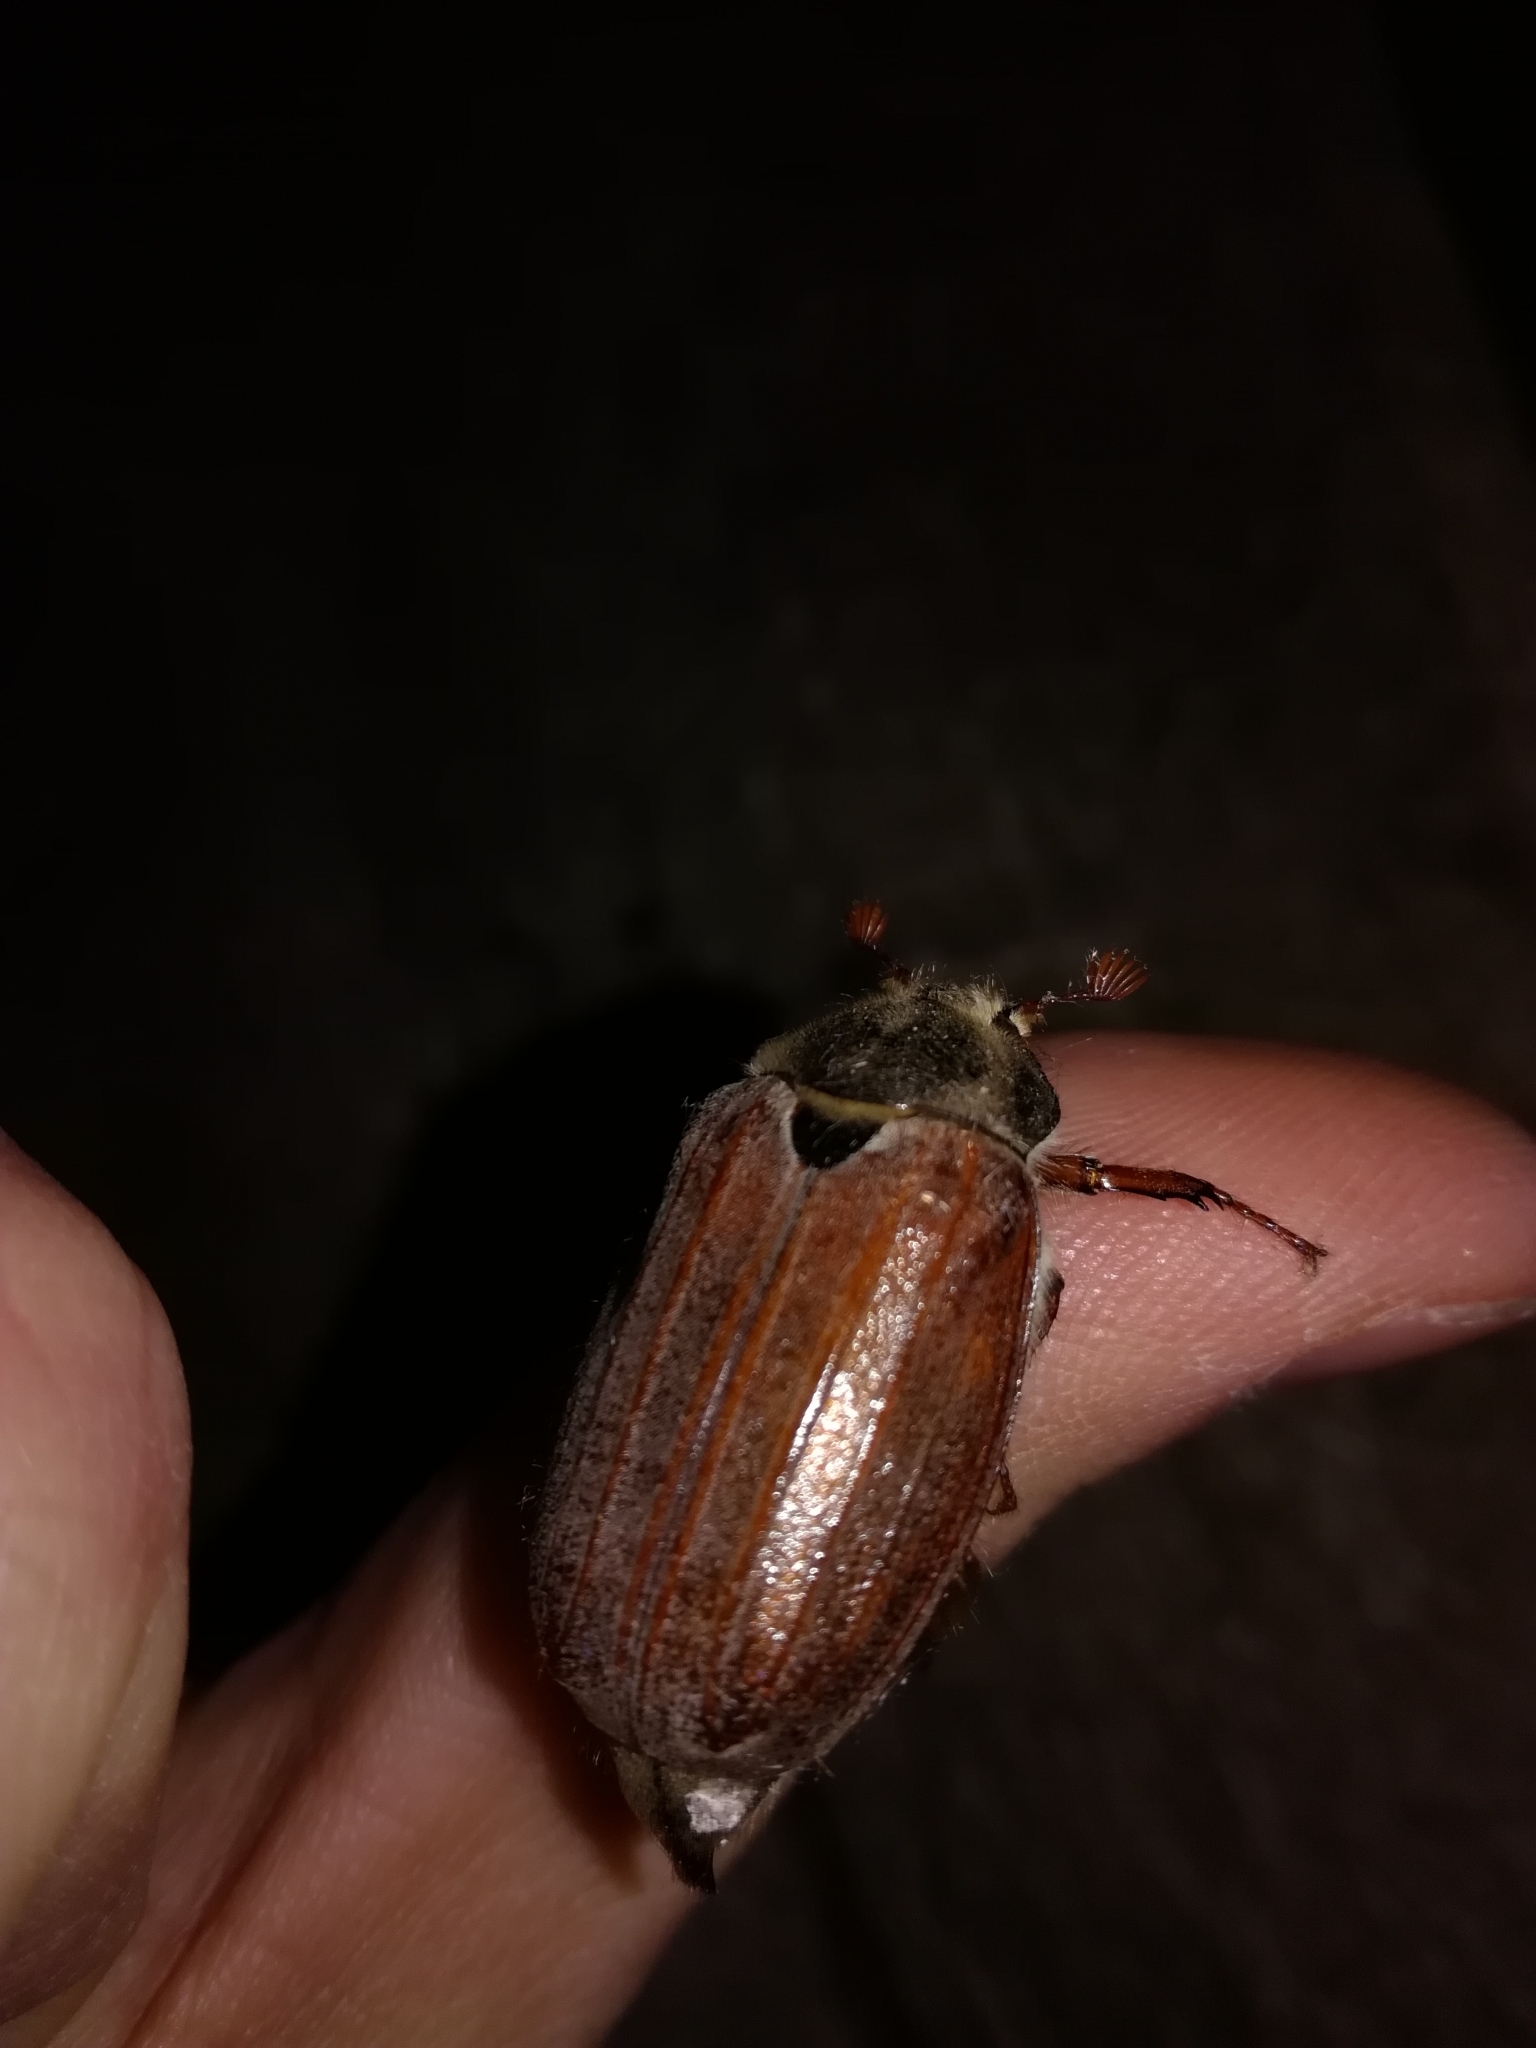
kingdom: Animalia
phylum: Arthropoda
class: Insecta
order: Coleoptera
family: Scarabaeidae
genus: Melolontha
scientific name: Melolontha melolontha
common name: Cockchafer maybeetle
